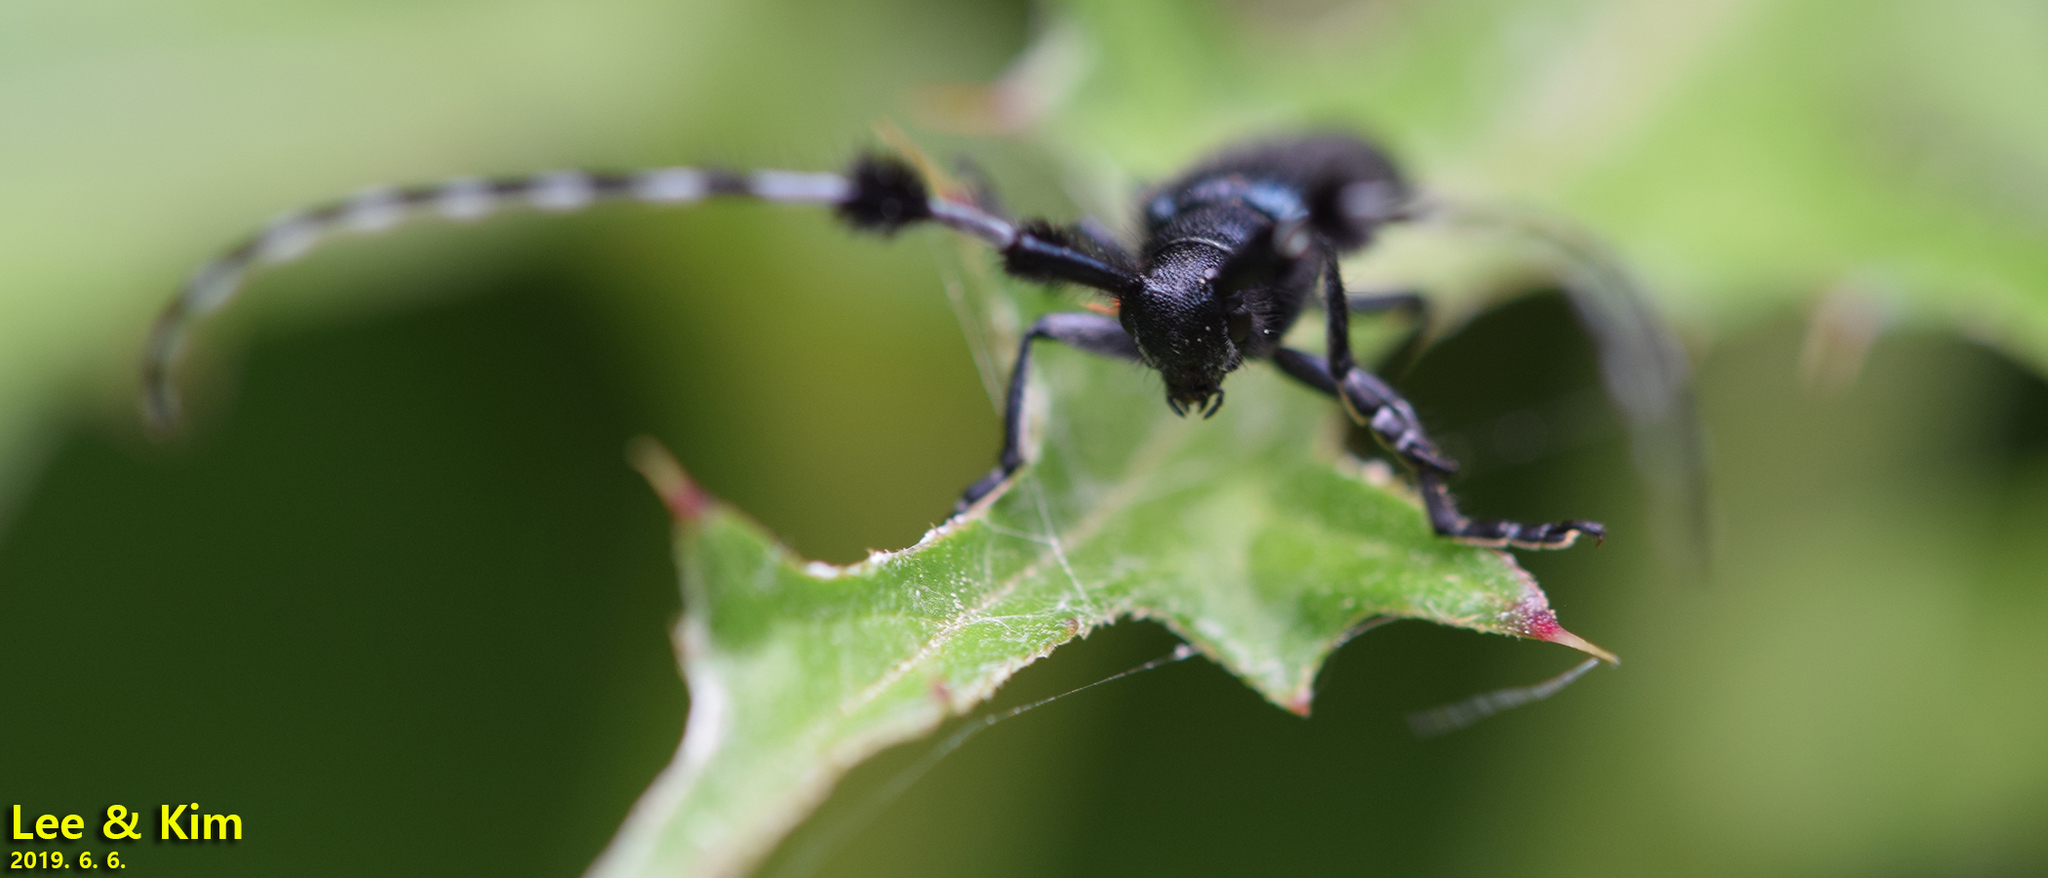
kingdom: Animalia
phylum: Arthropoda
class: Insecta
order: Coleoptera
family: Cerambycidae
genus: Agapanthia
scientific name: Agapanthia amurensis
